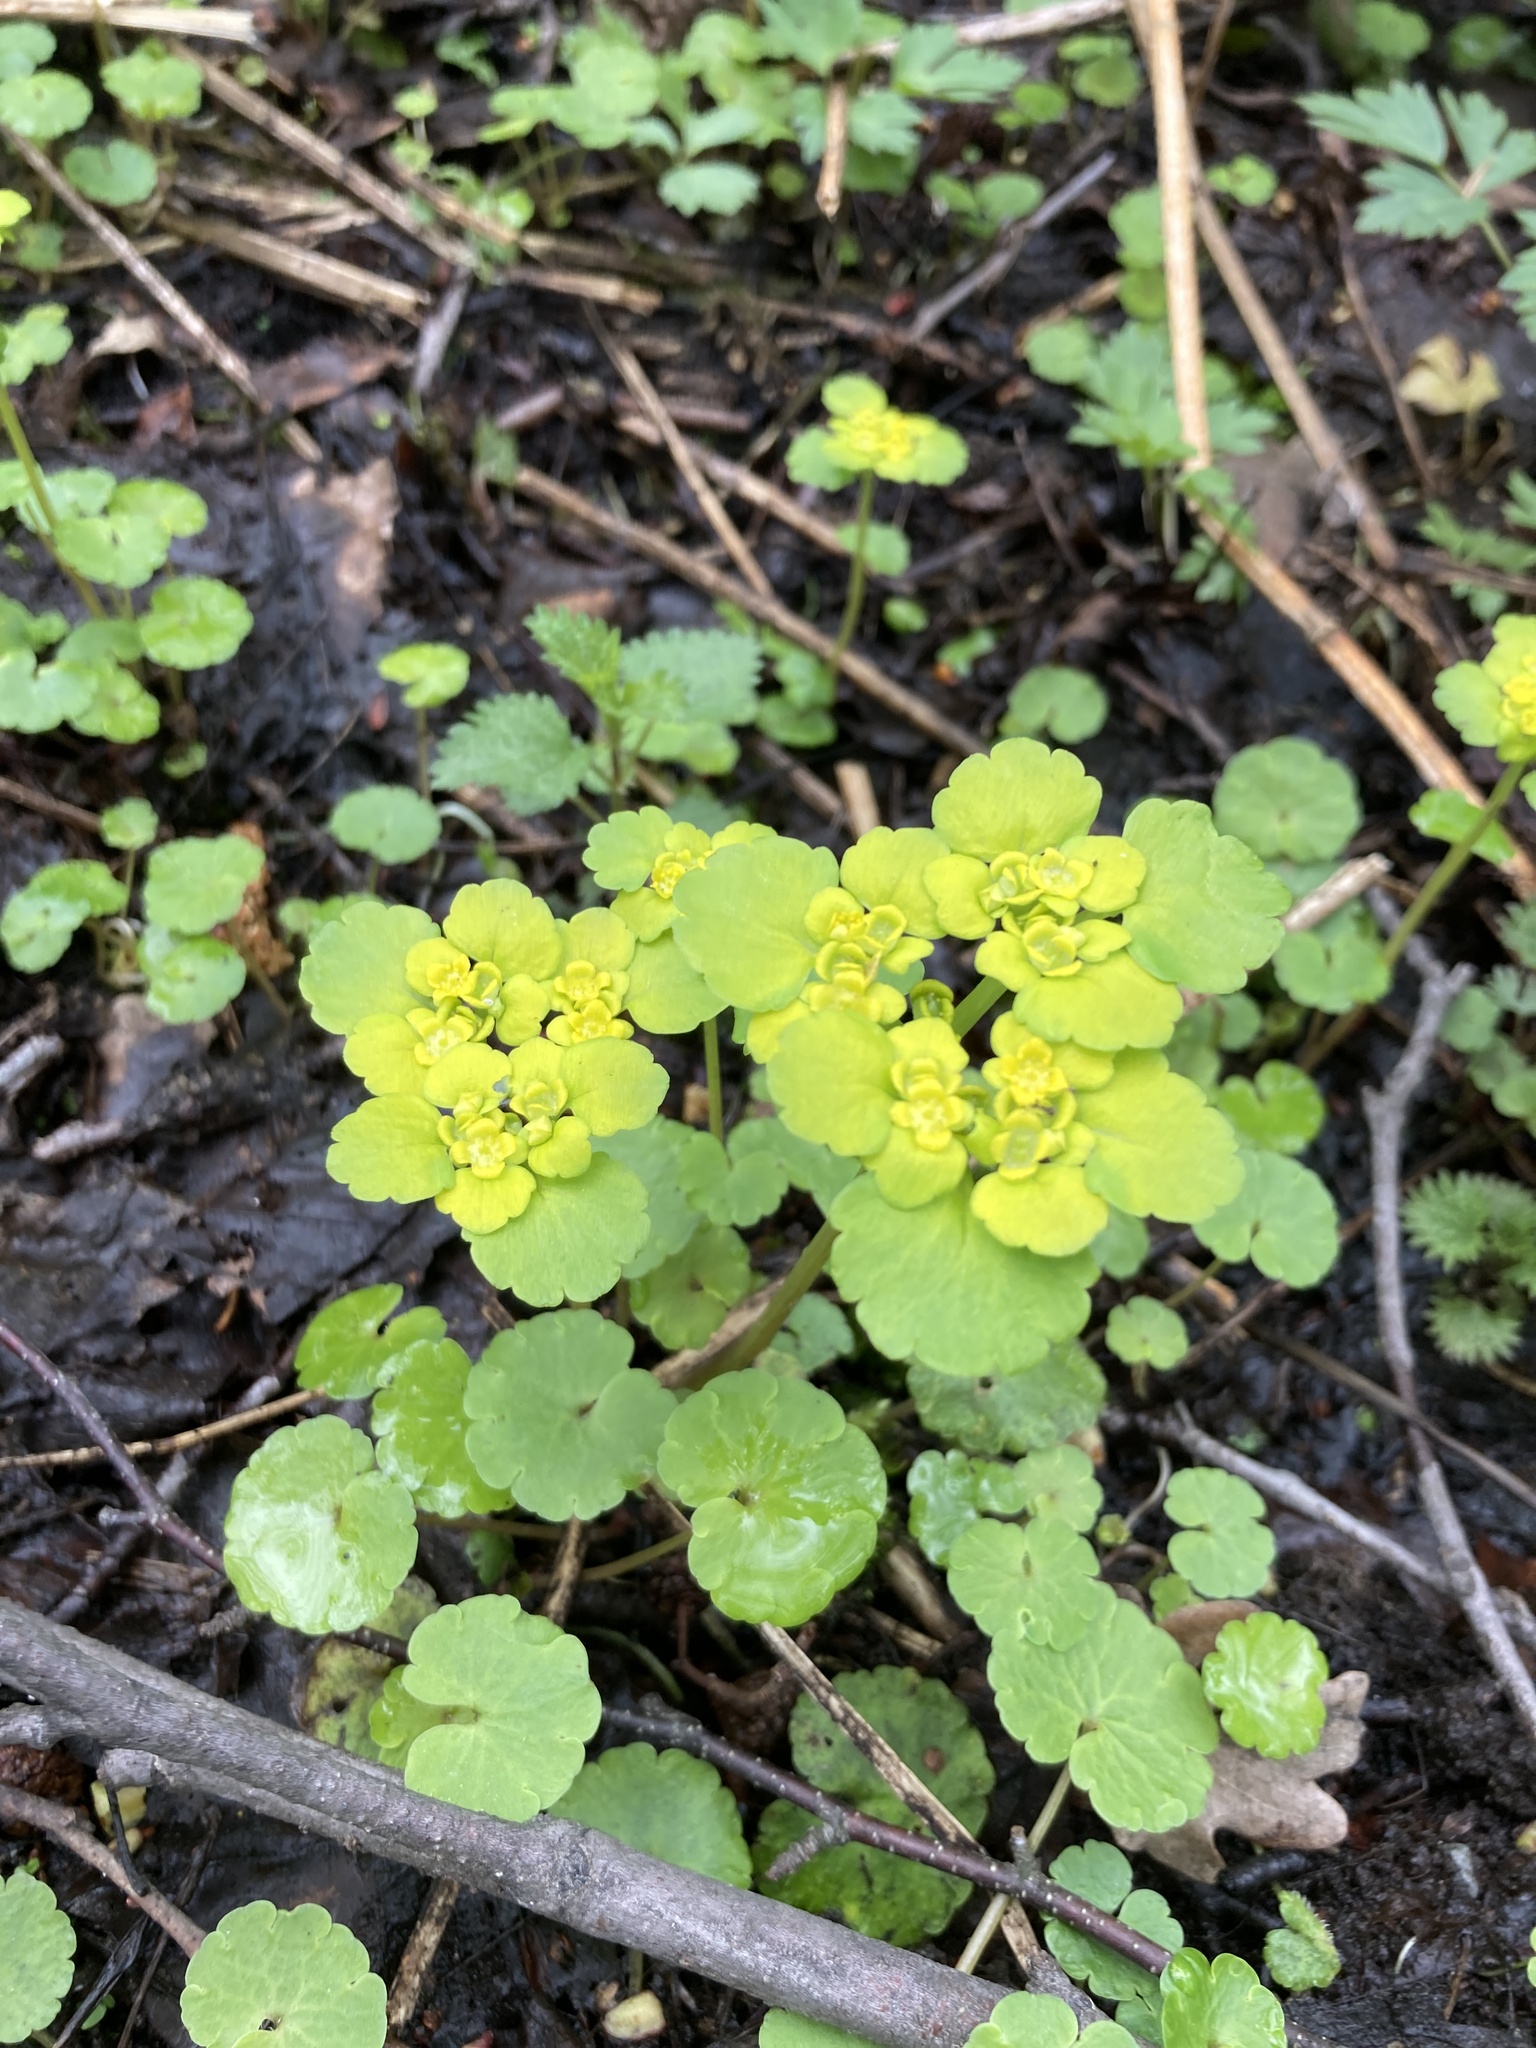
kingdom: Plantae
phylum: Tracheophyta
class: Magnoliopsida
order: Saxifragales
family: Saxifragaceae
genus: Chrysosplenium
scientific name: Chrysosplenium alternifolium
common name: Alternate-leaved golden-saxifrage
